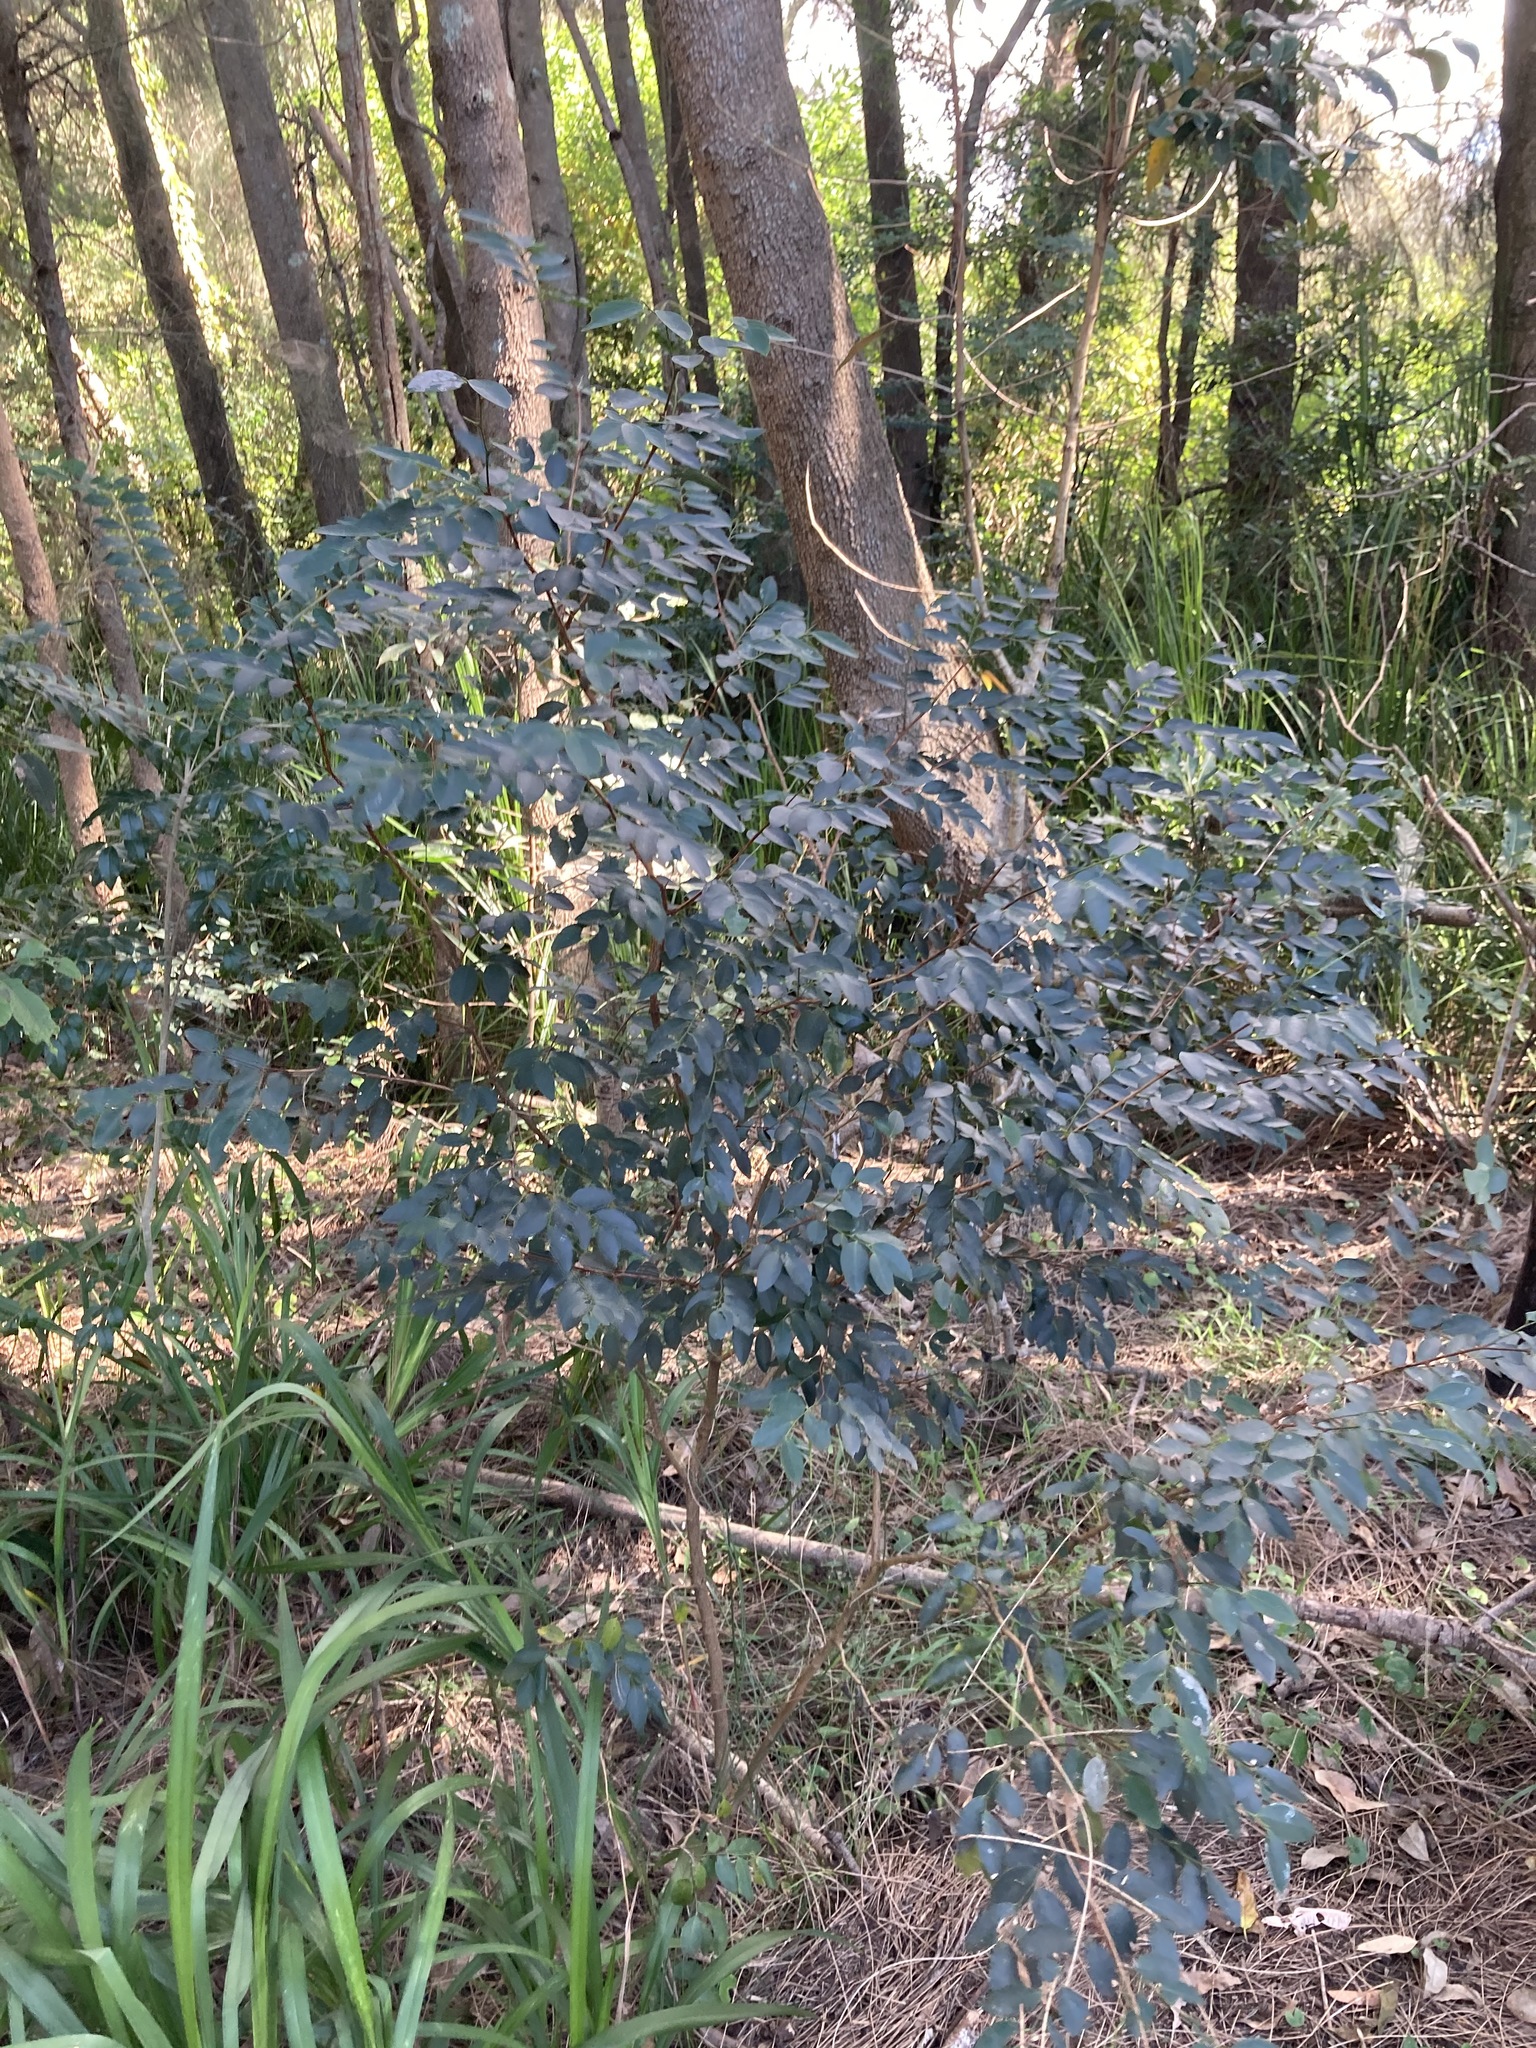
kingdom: Plantae
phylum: Tracheophyta
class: Magnoliopsida
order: Malpighiales
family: Phyllanthaceae
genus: Breynia
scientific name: Breynia oblongifolia
